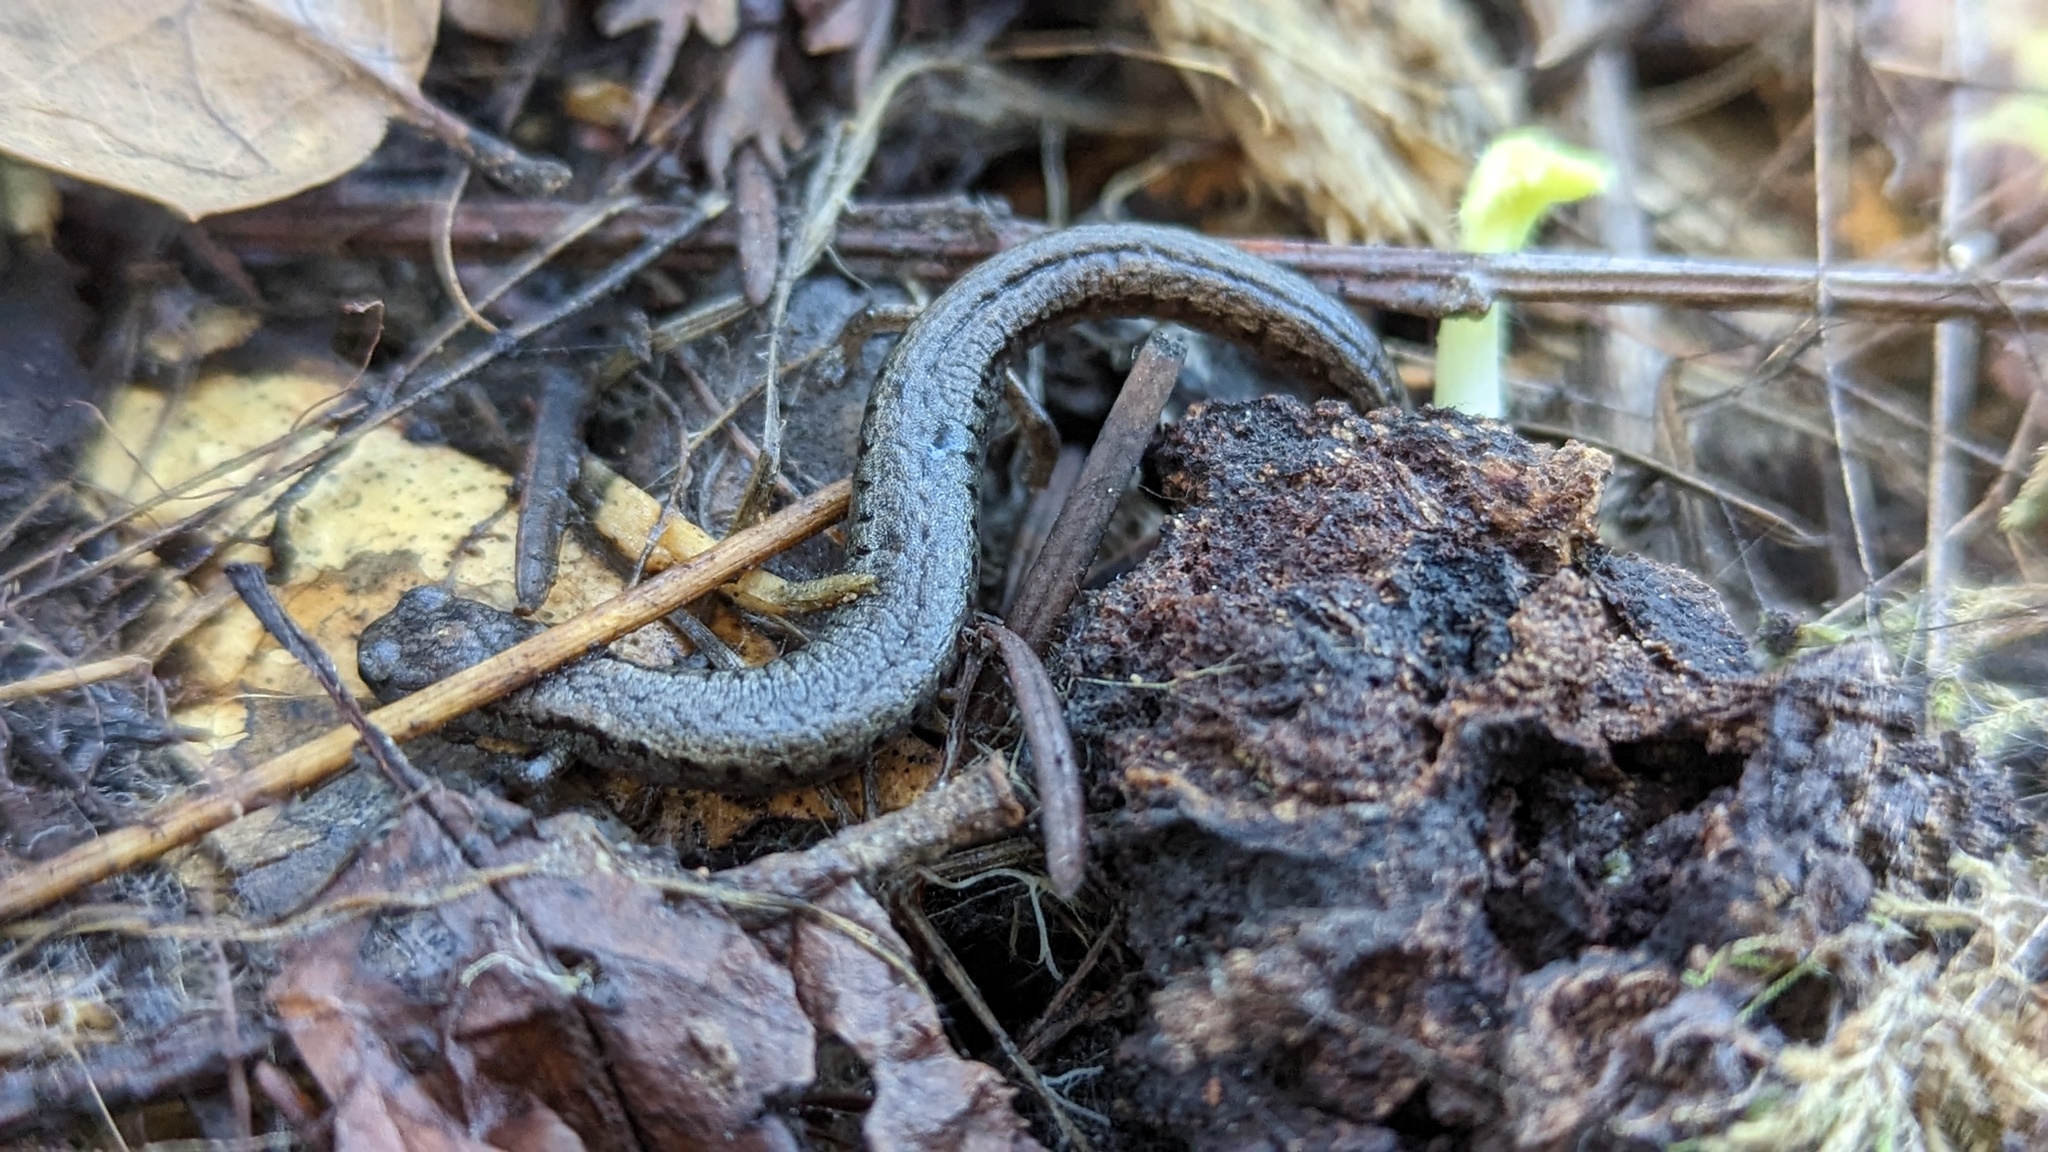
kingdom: Animalia
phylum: Chordata
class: Amphibia
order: Caudata
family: Plethodontidae
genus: Batrachoseps
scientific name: Batrachoseps attenuatus
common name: California slender salamander
